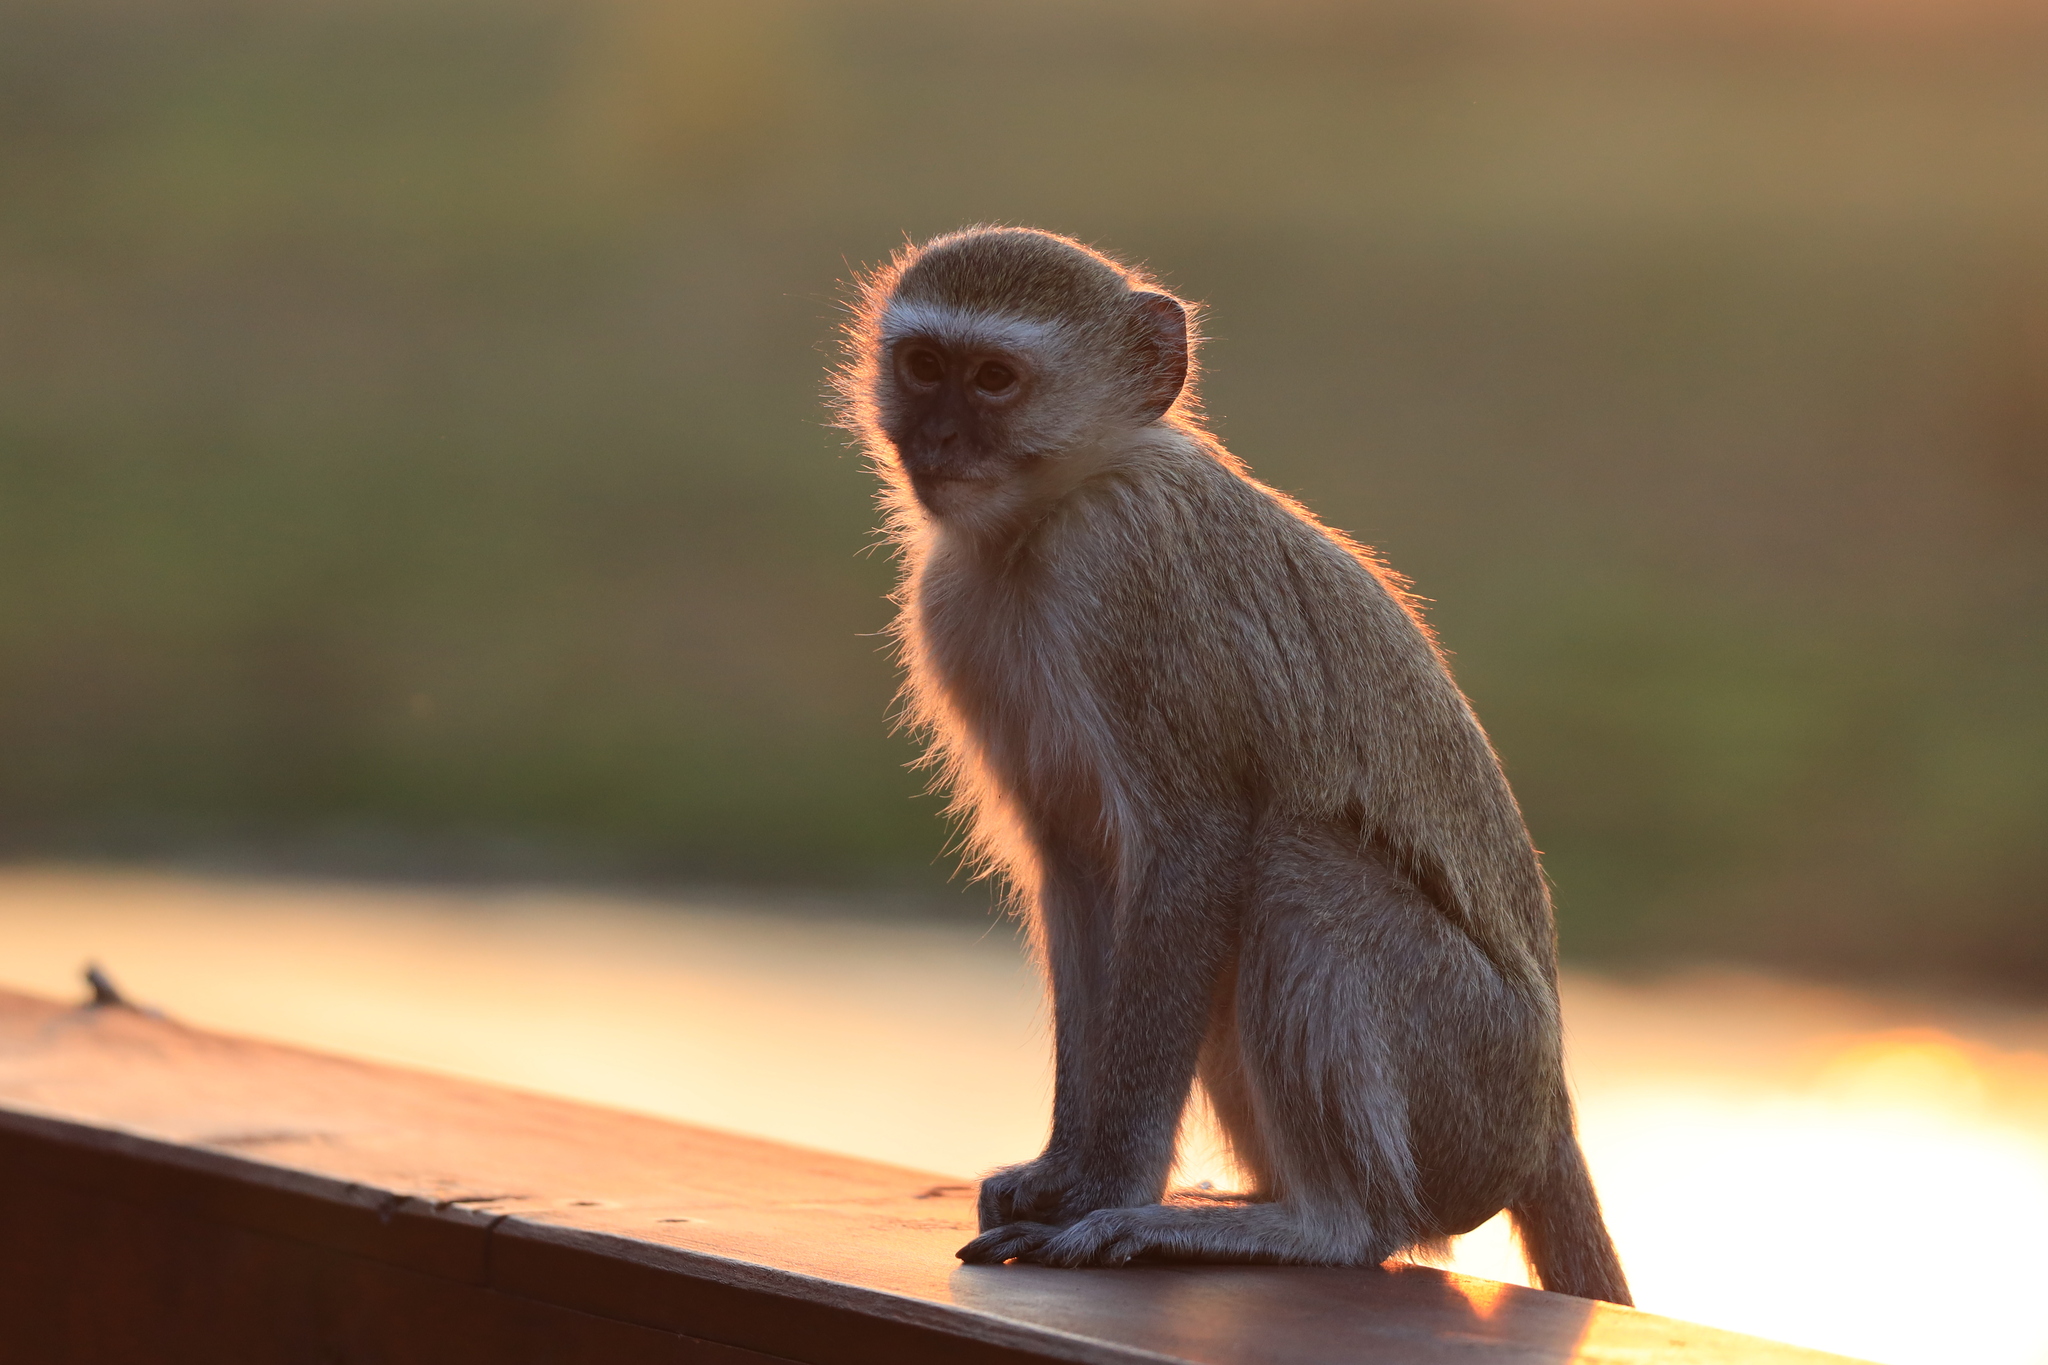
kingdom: Animalia
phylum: Chordata
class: Mammalia
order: Primates
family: Cercopithecidae
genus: Chlorocebus
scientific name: Chlorocebus cynosuros
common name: Malbrouck
